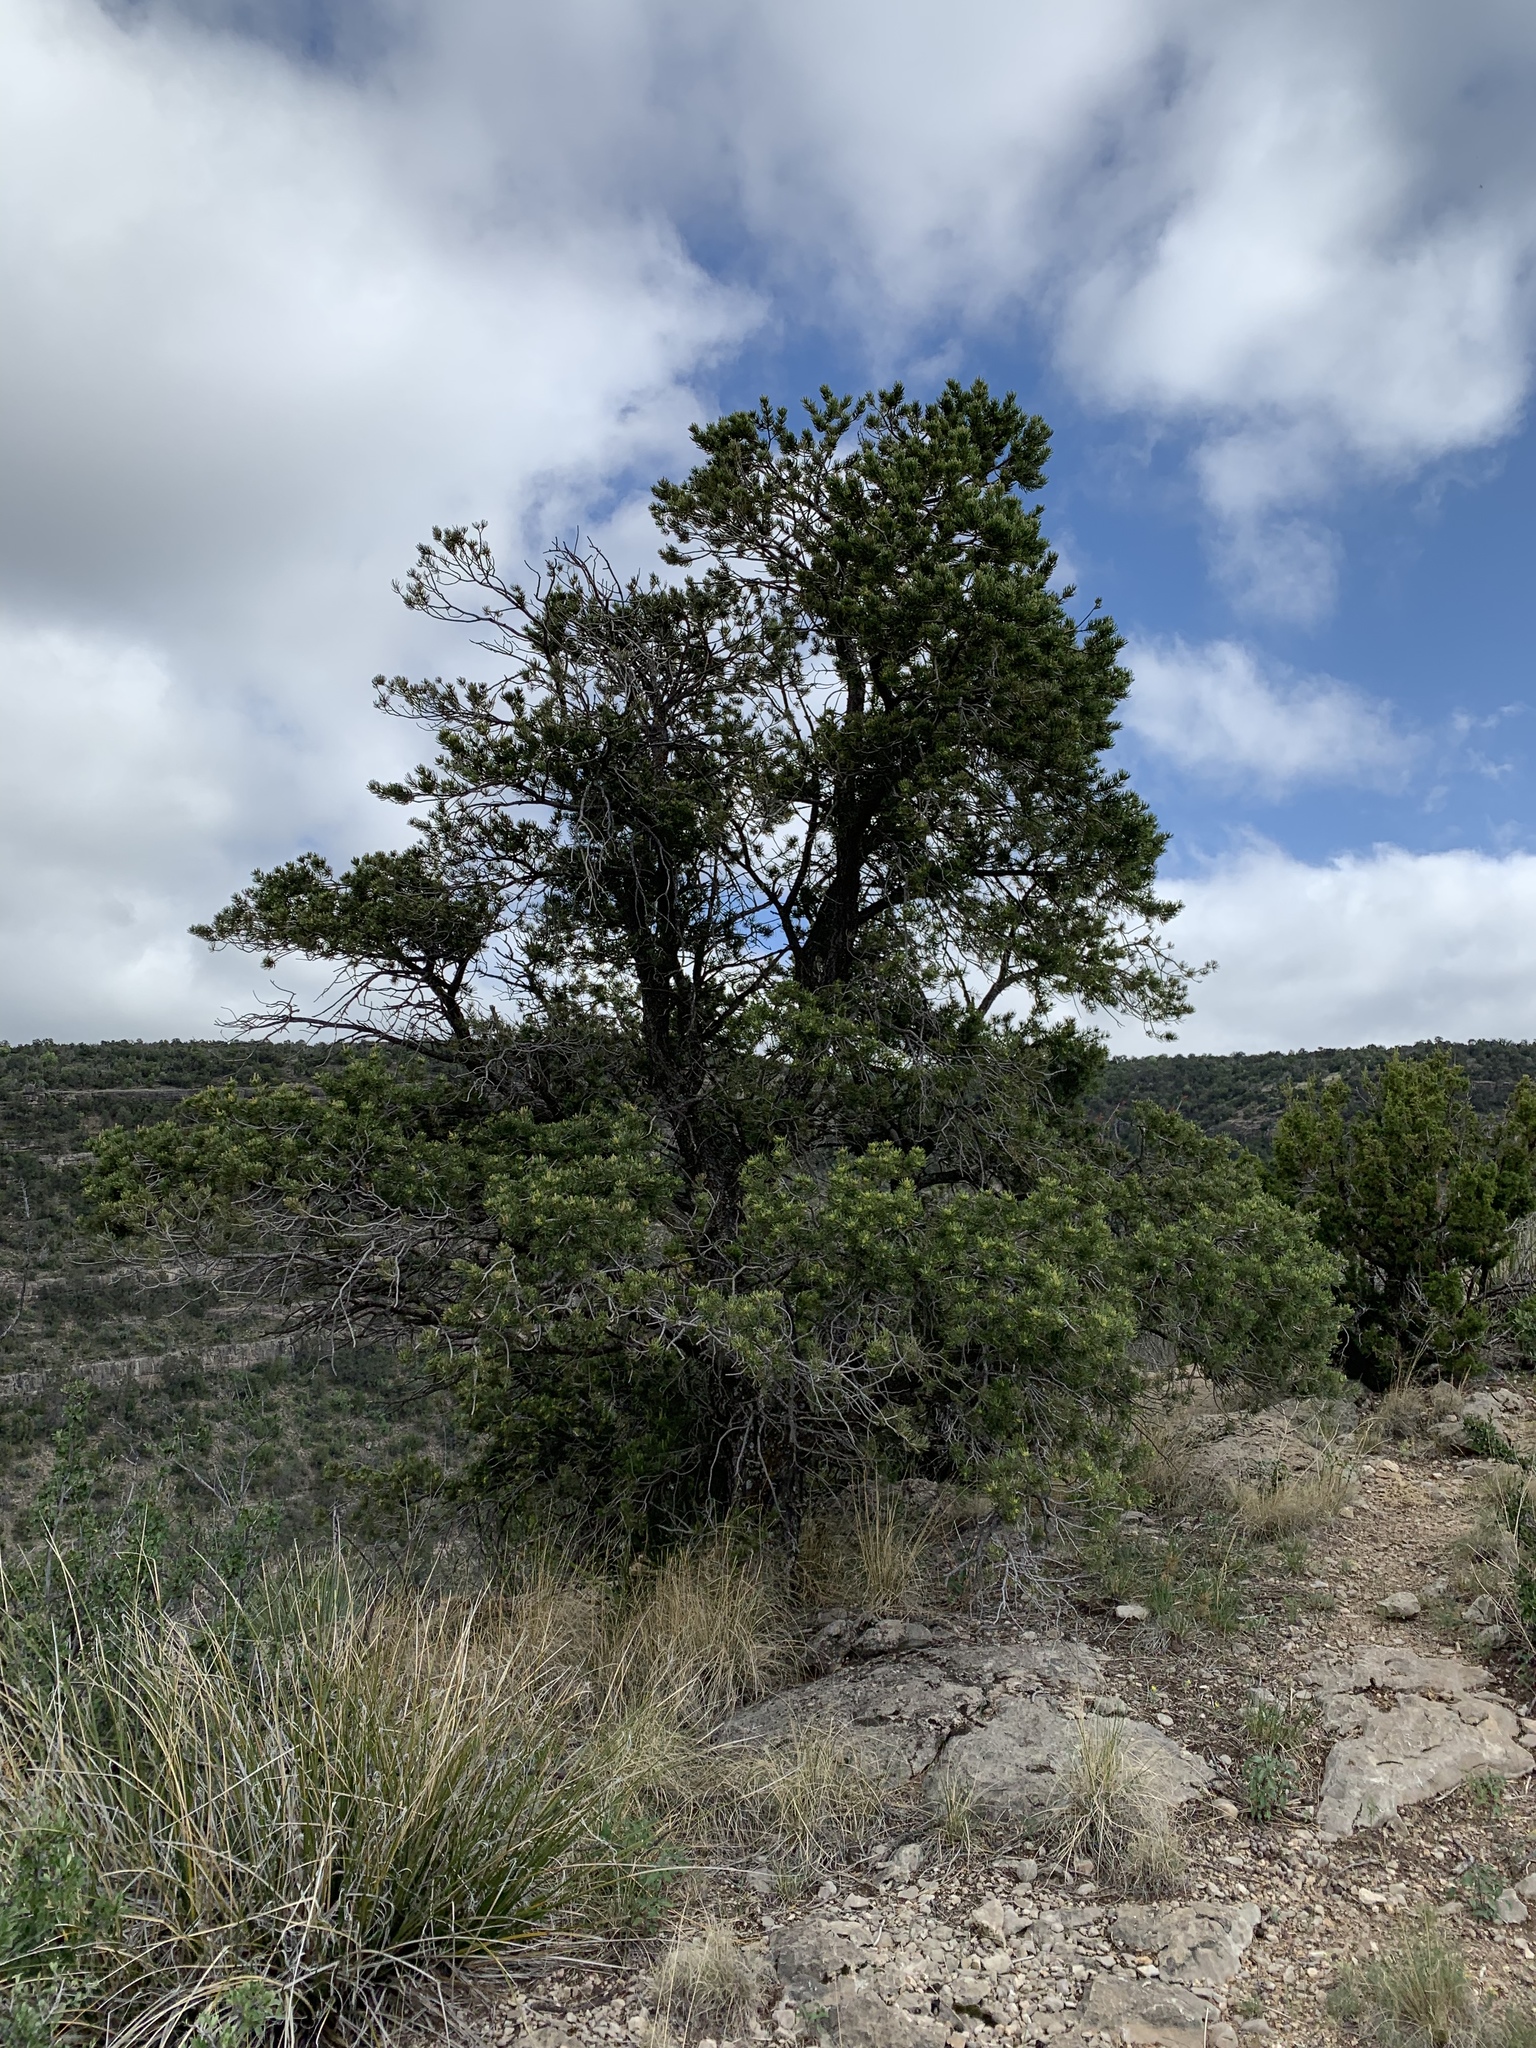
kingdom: Plantae
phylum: Tracheophyta
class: Pinopsida
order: Pinales
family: Pinaceae
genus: Pinus
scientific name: Pinus edulis
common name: Colorado pinyon
